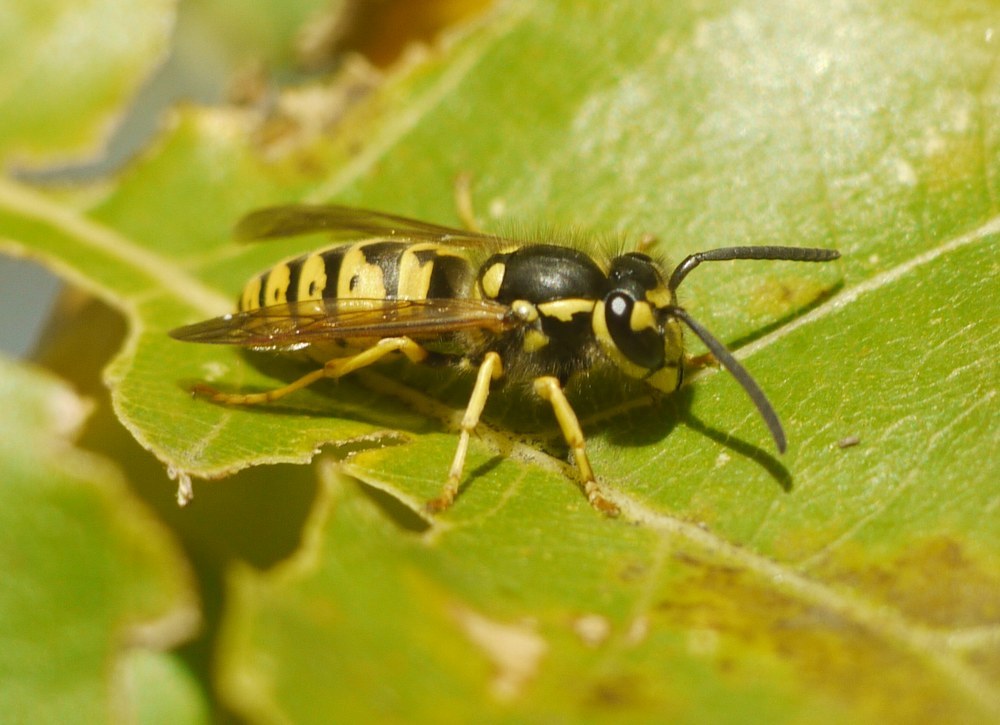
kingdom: Animalia
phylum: Arthropoda
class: Insecta
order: Hymenoptera
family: Vespidae
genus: Vespula
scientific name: Vespula germanica
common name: German wasp
